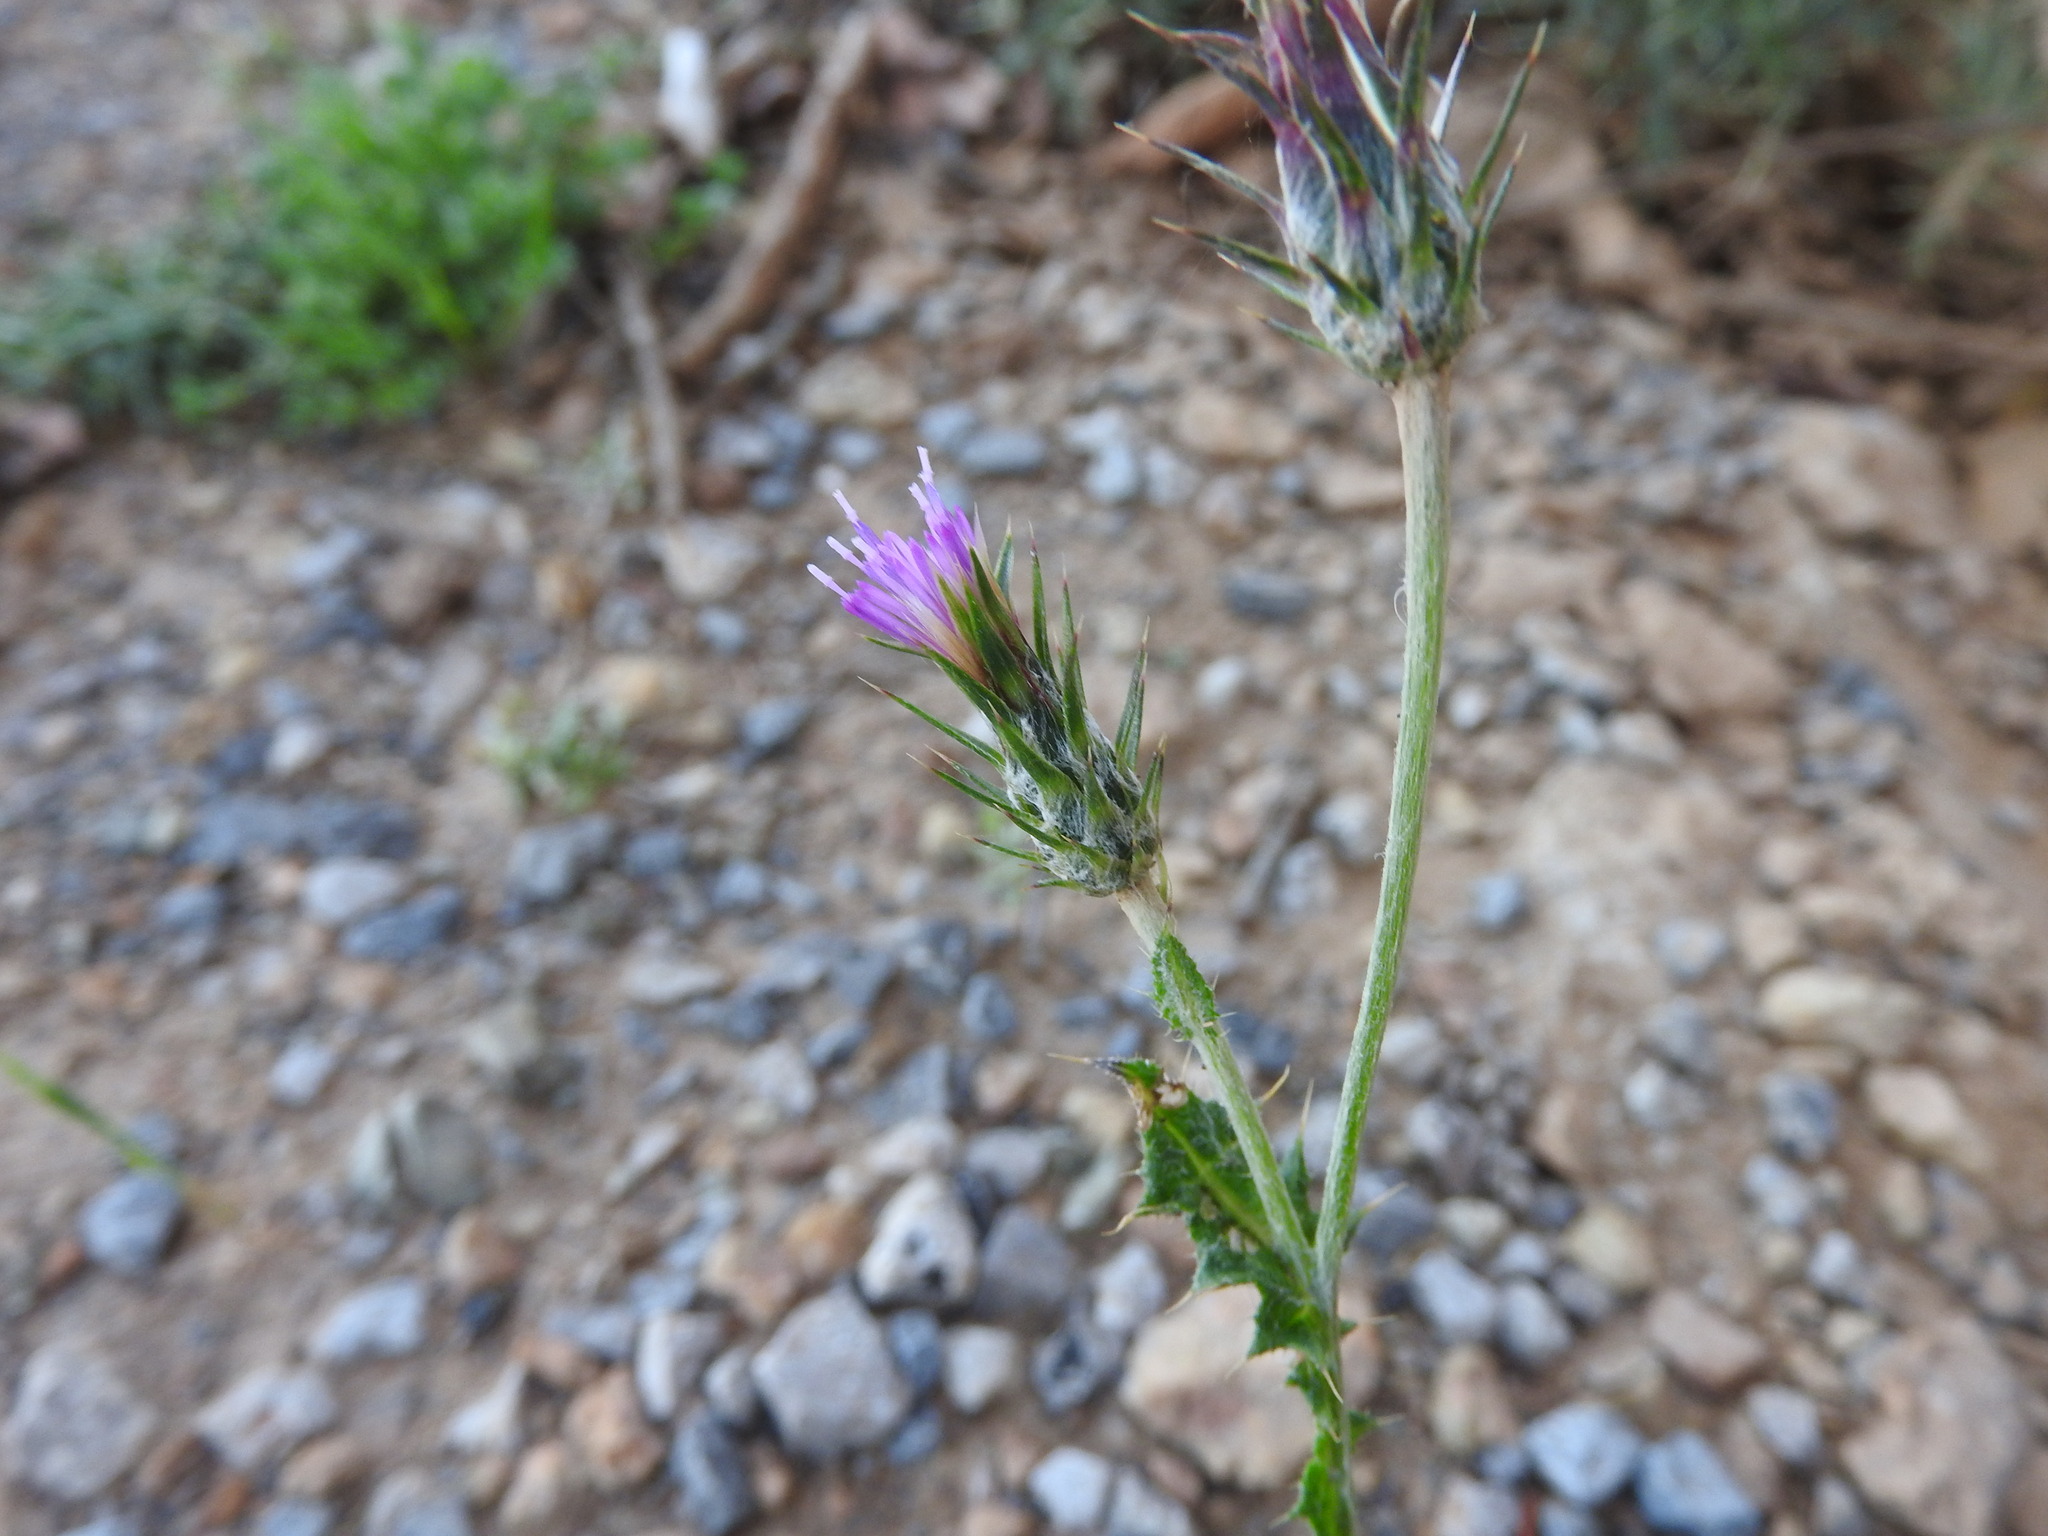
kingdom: Plantae
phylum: Tracheophyta
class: Magnoliopsida
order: Asterales
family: Asteraceae
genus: Carduus
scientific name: Carduus pycnocephalus
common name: Plymouth thistle
